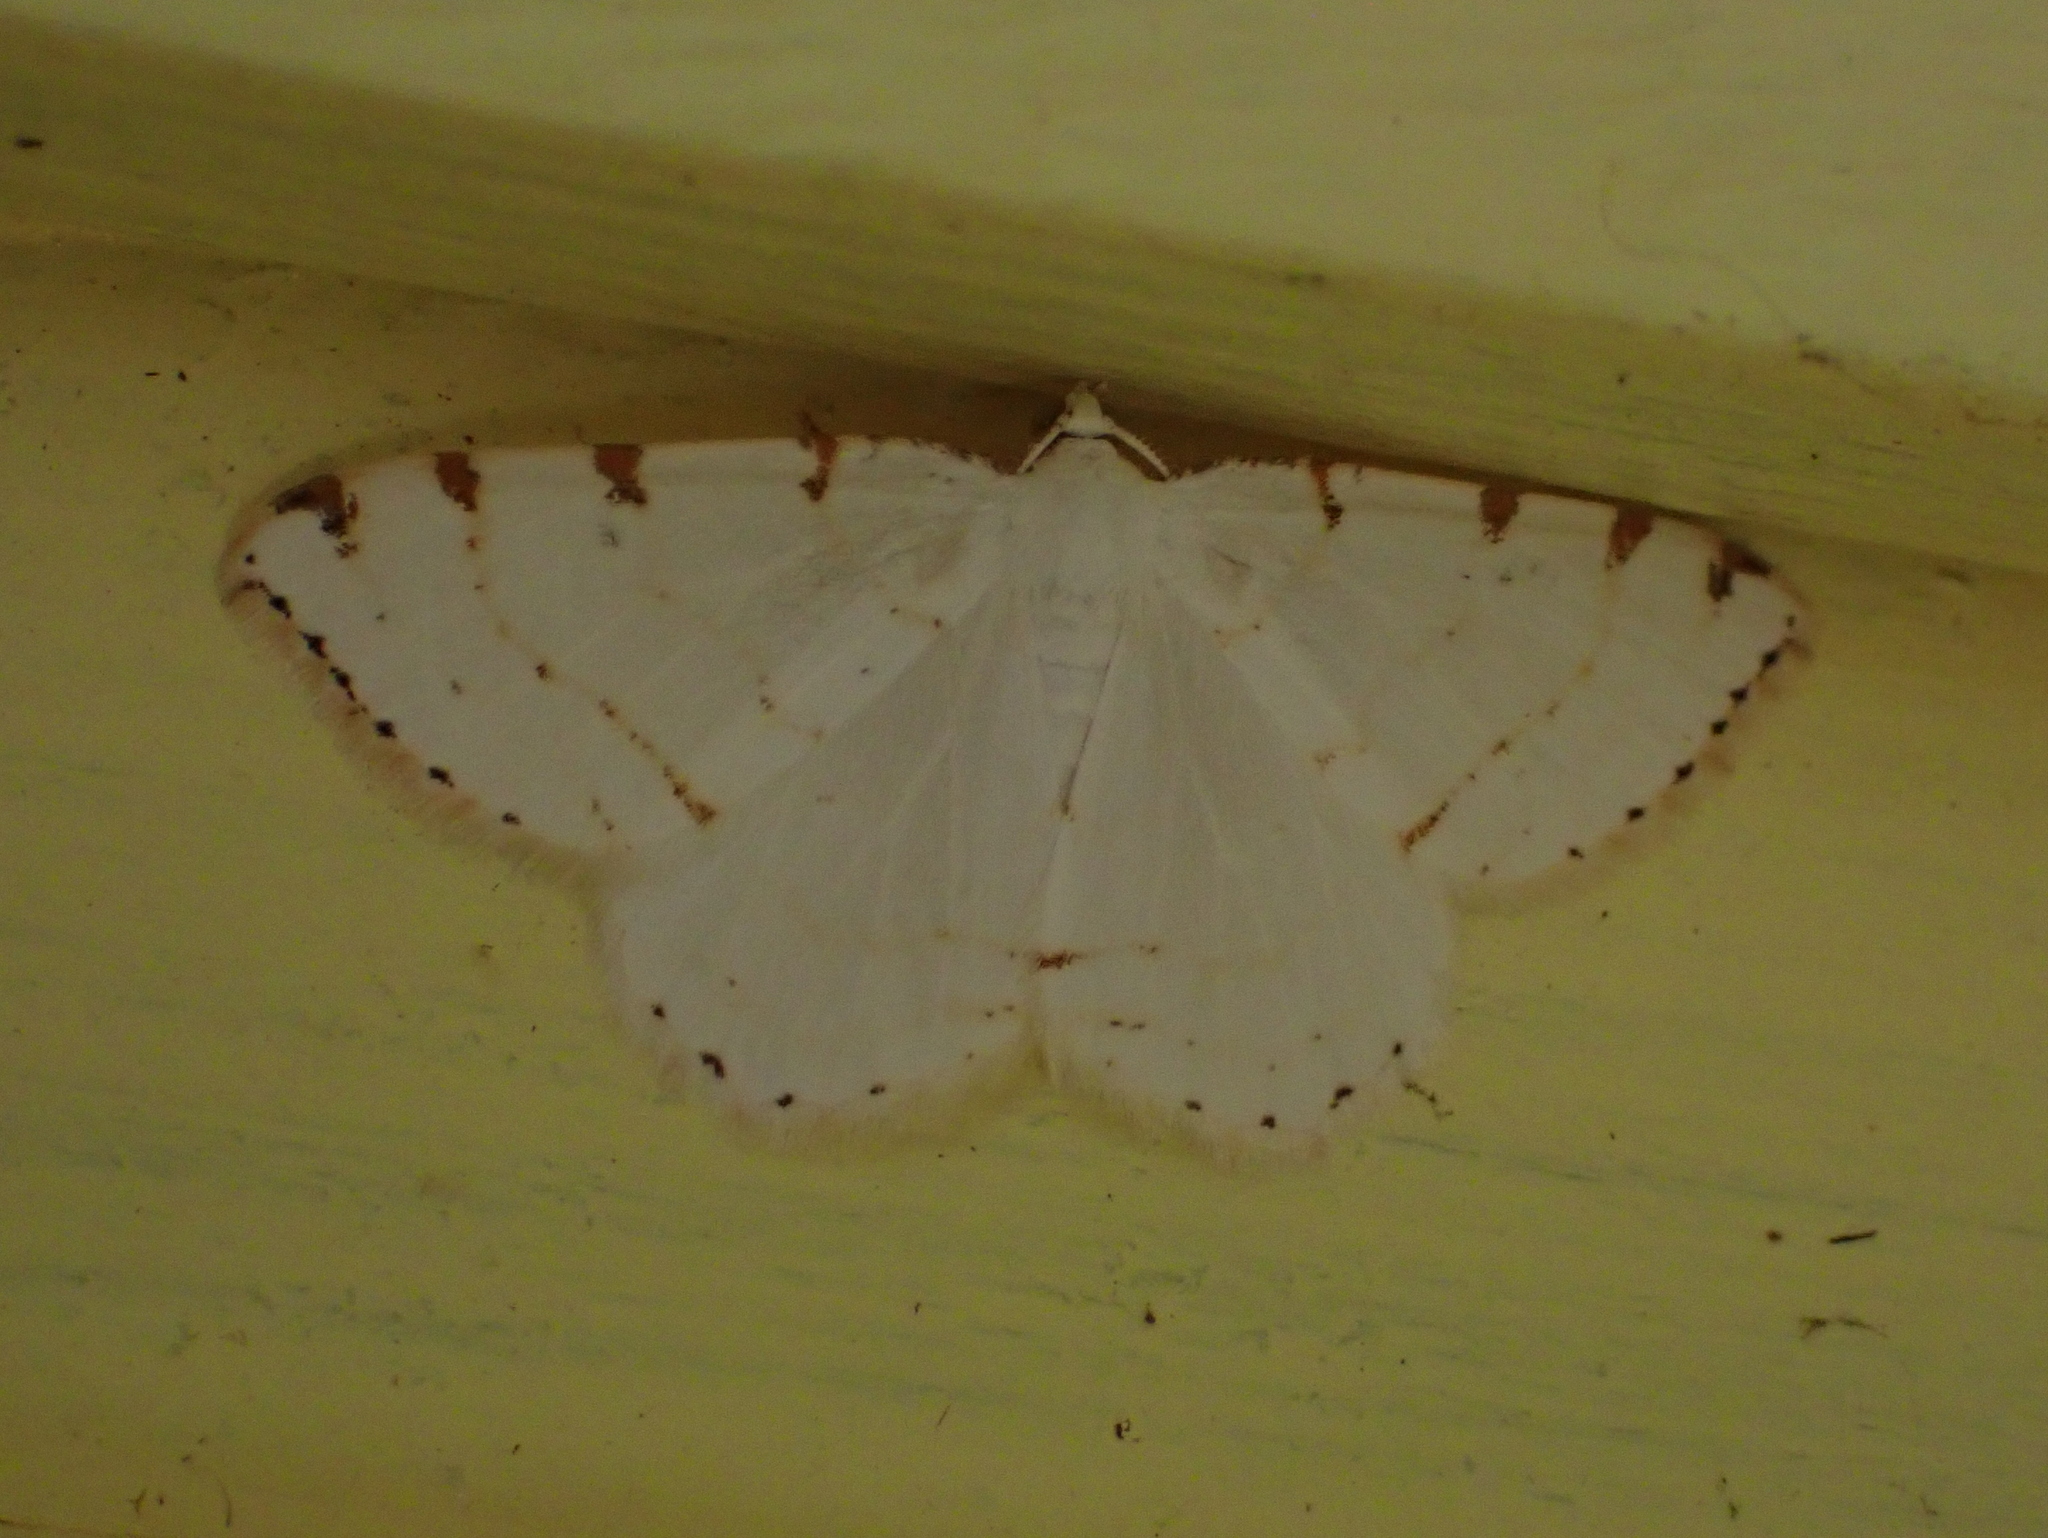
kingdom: Animalia
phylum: Arthropoda
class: Insecta
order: Lepidoptera
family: Geometridae
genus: Macaria
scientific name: Macaria pustularia
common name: Lesser maple spanworm moth
